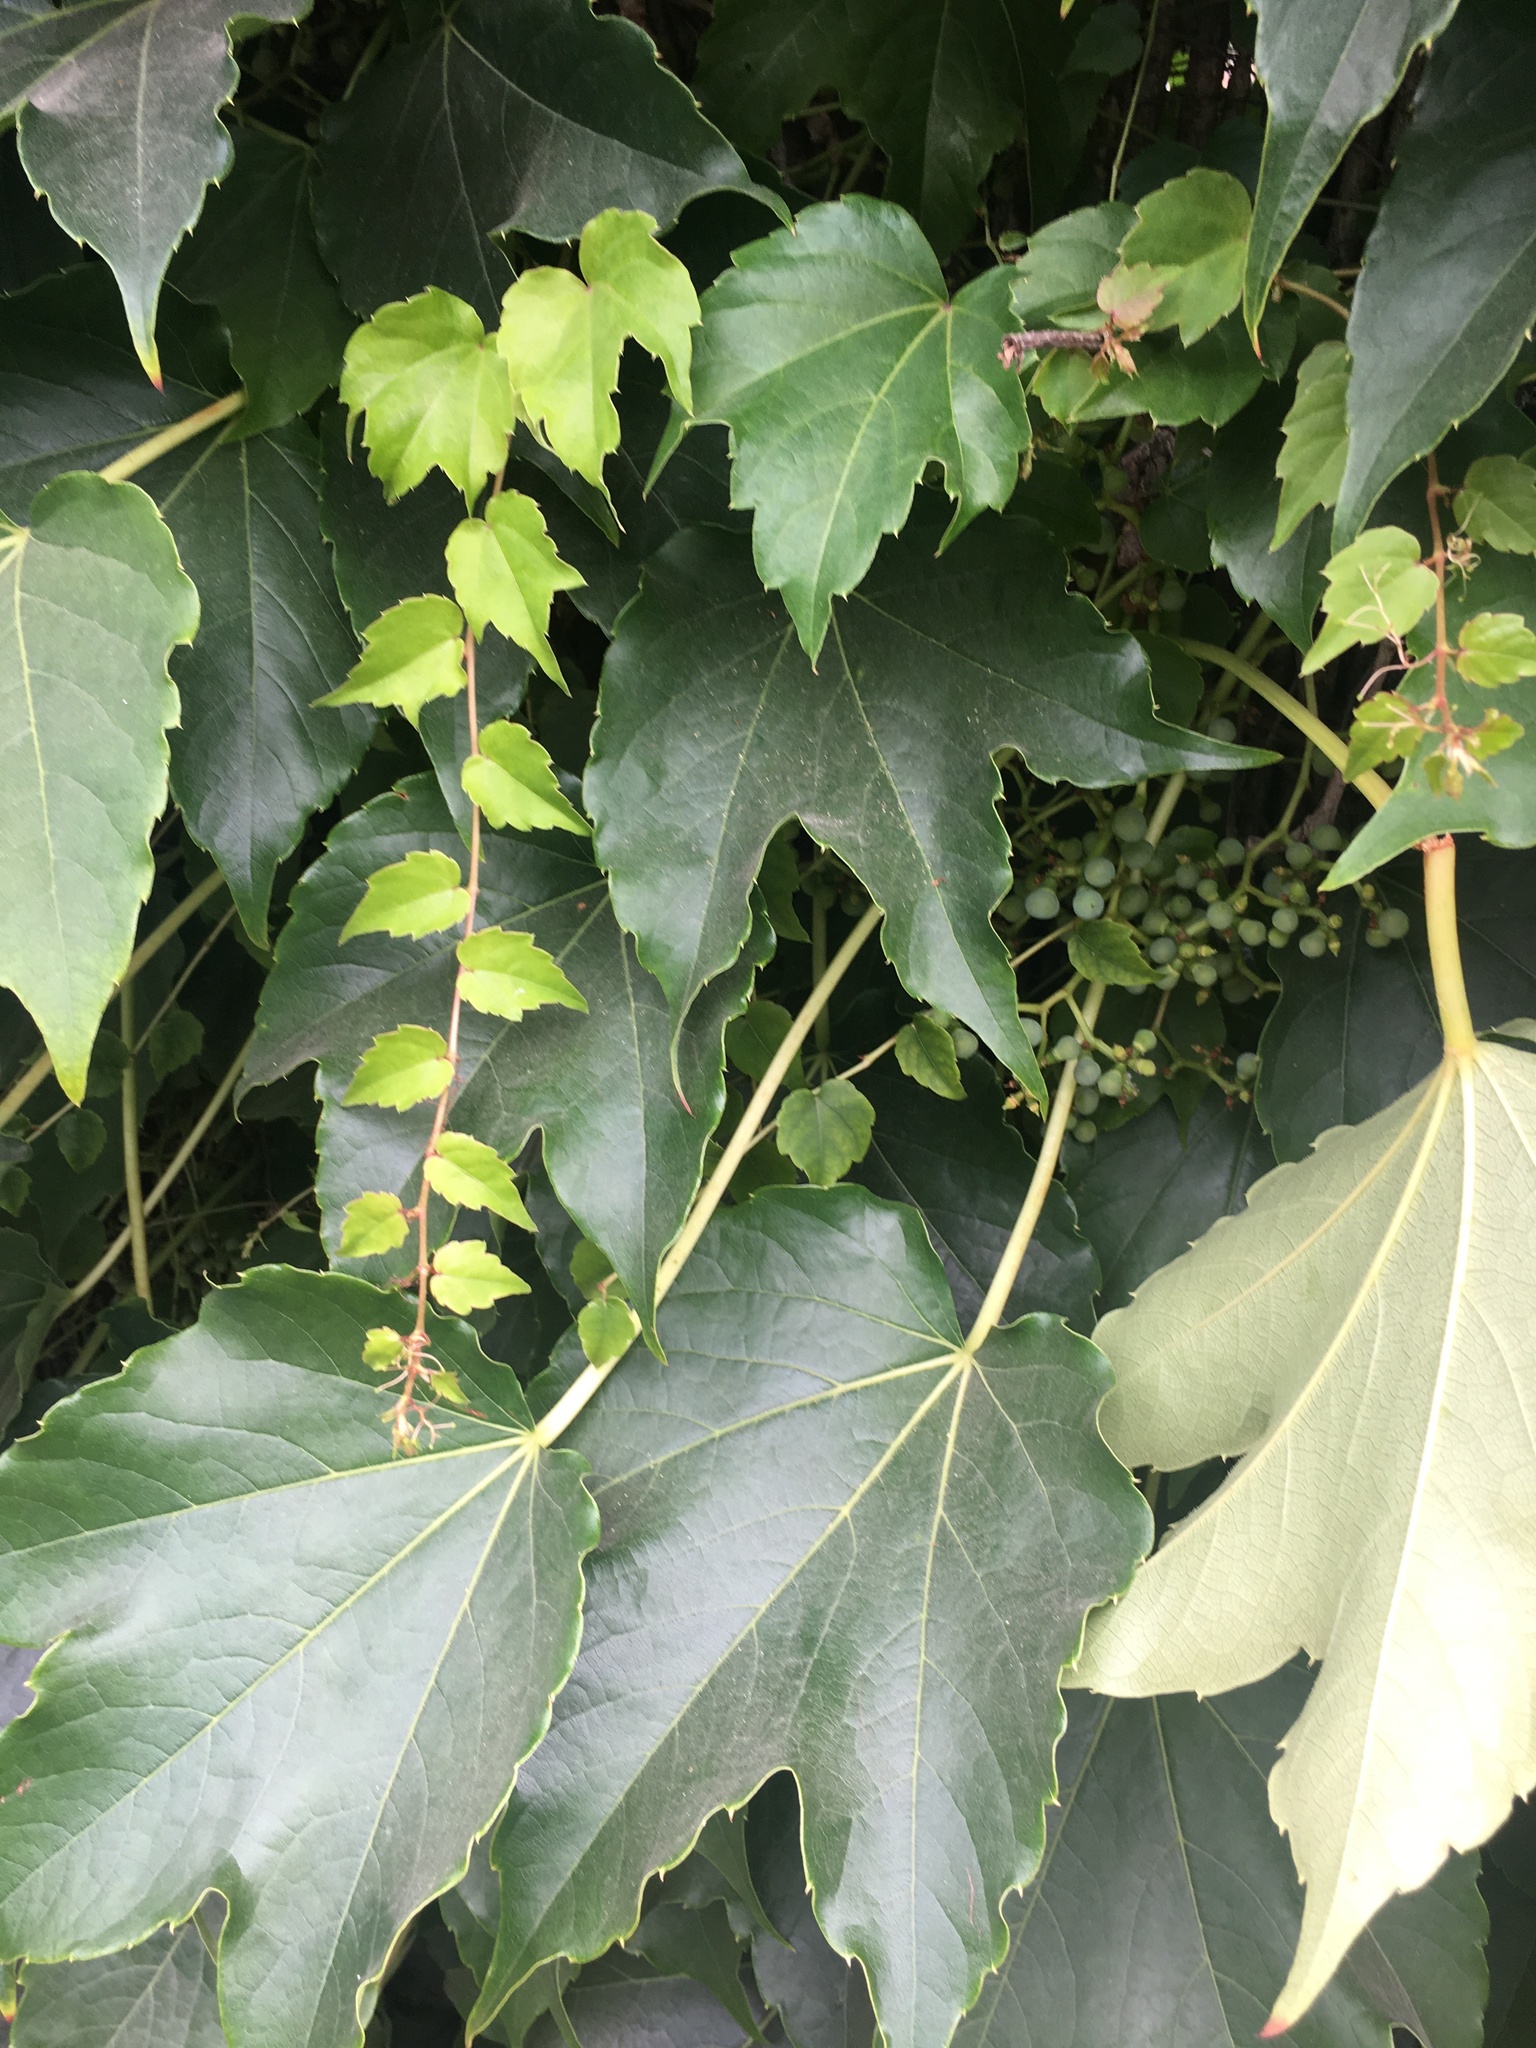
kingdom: Plantae
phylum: Tracheophyta
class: Magnoliopsida
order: Vitales
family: Vitaceae
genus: Parthenocissus
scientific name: Parthenocissus tricuspidata
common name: Boston ivy
